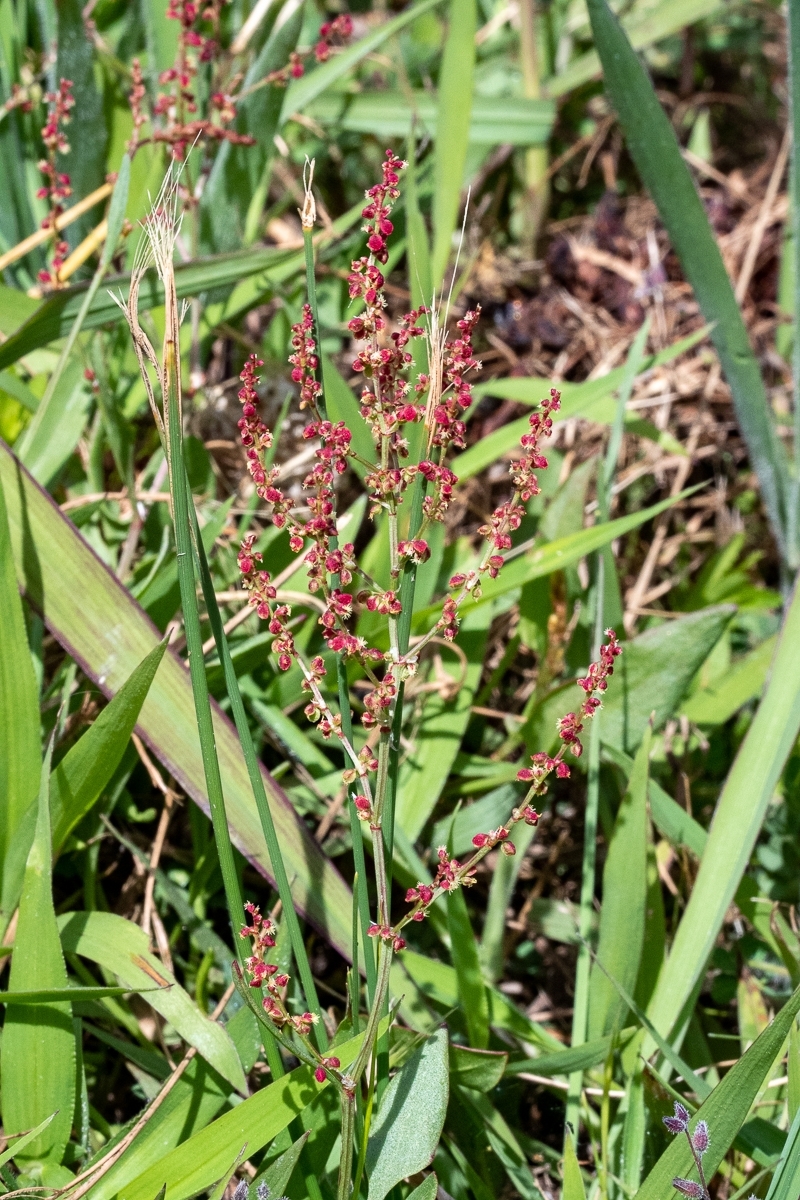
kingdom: Plantae
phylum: Tracheophyta
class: Magnoliopsida
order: Caryophyllales
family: Polygonaceae
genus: Rumex
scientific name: Rumex acetosella
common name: Common sheep sorrel
